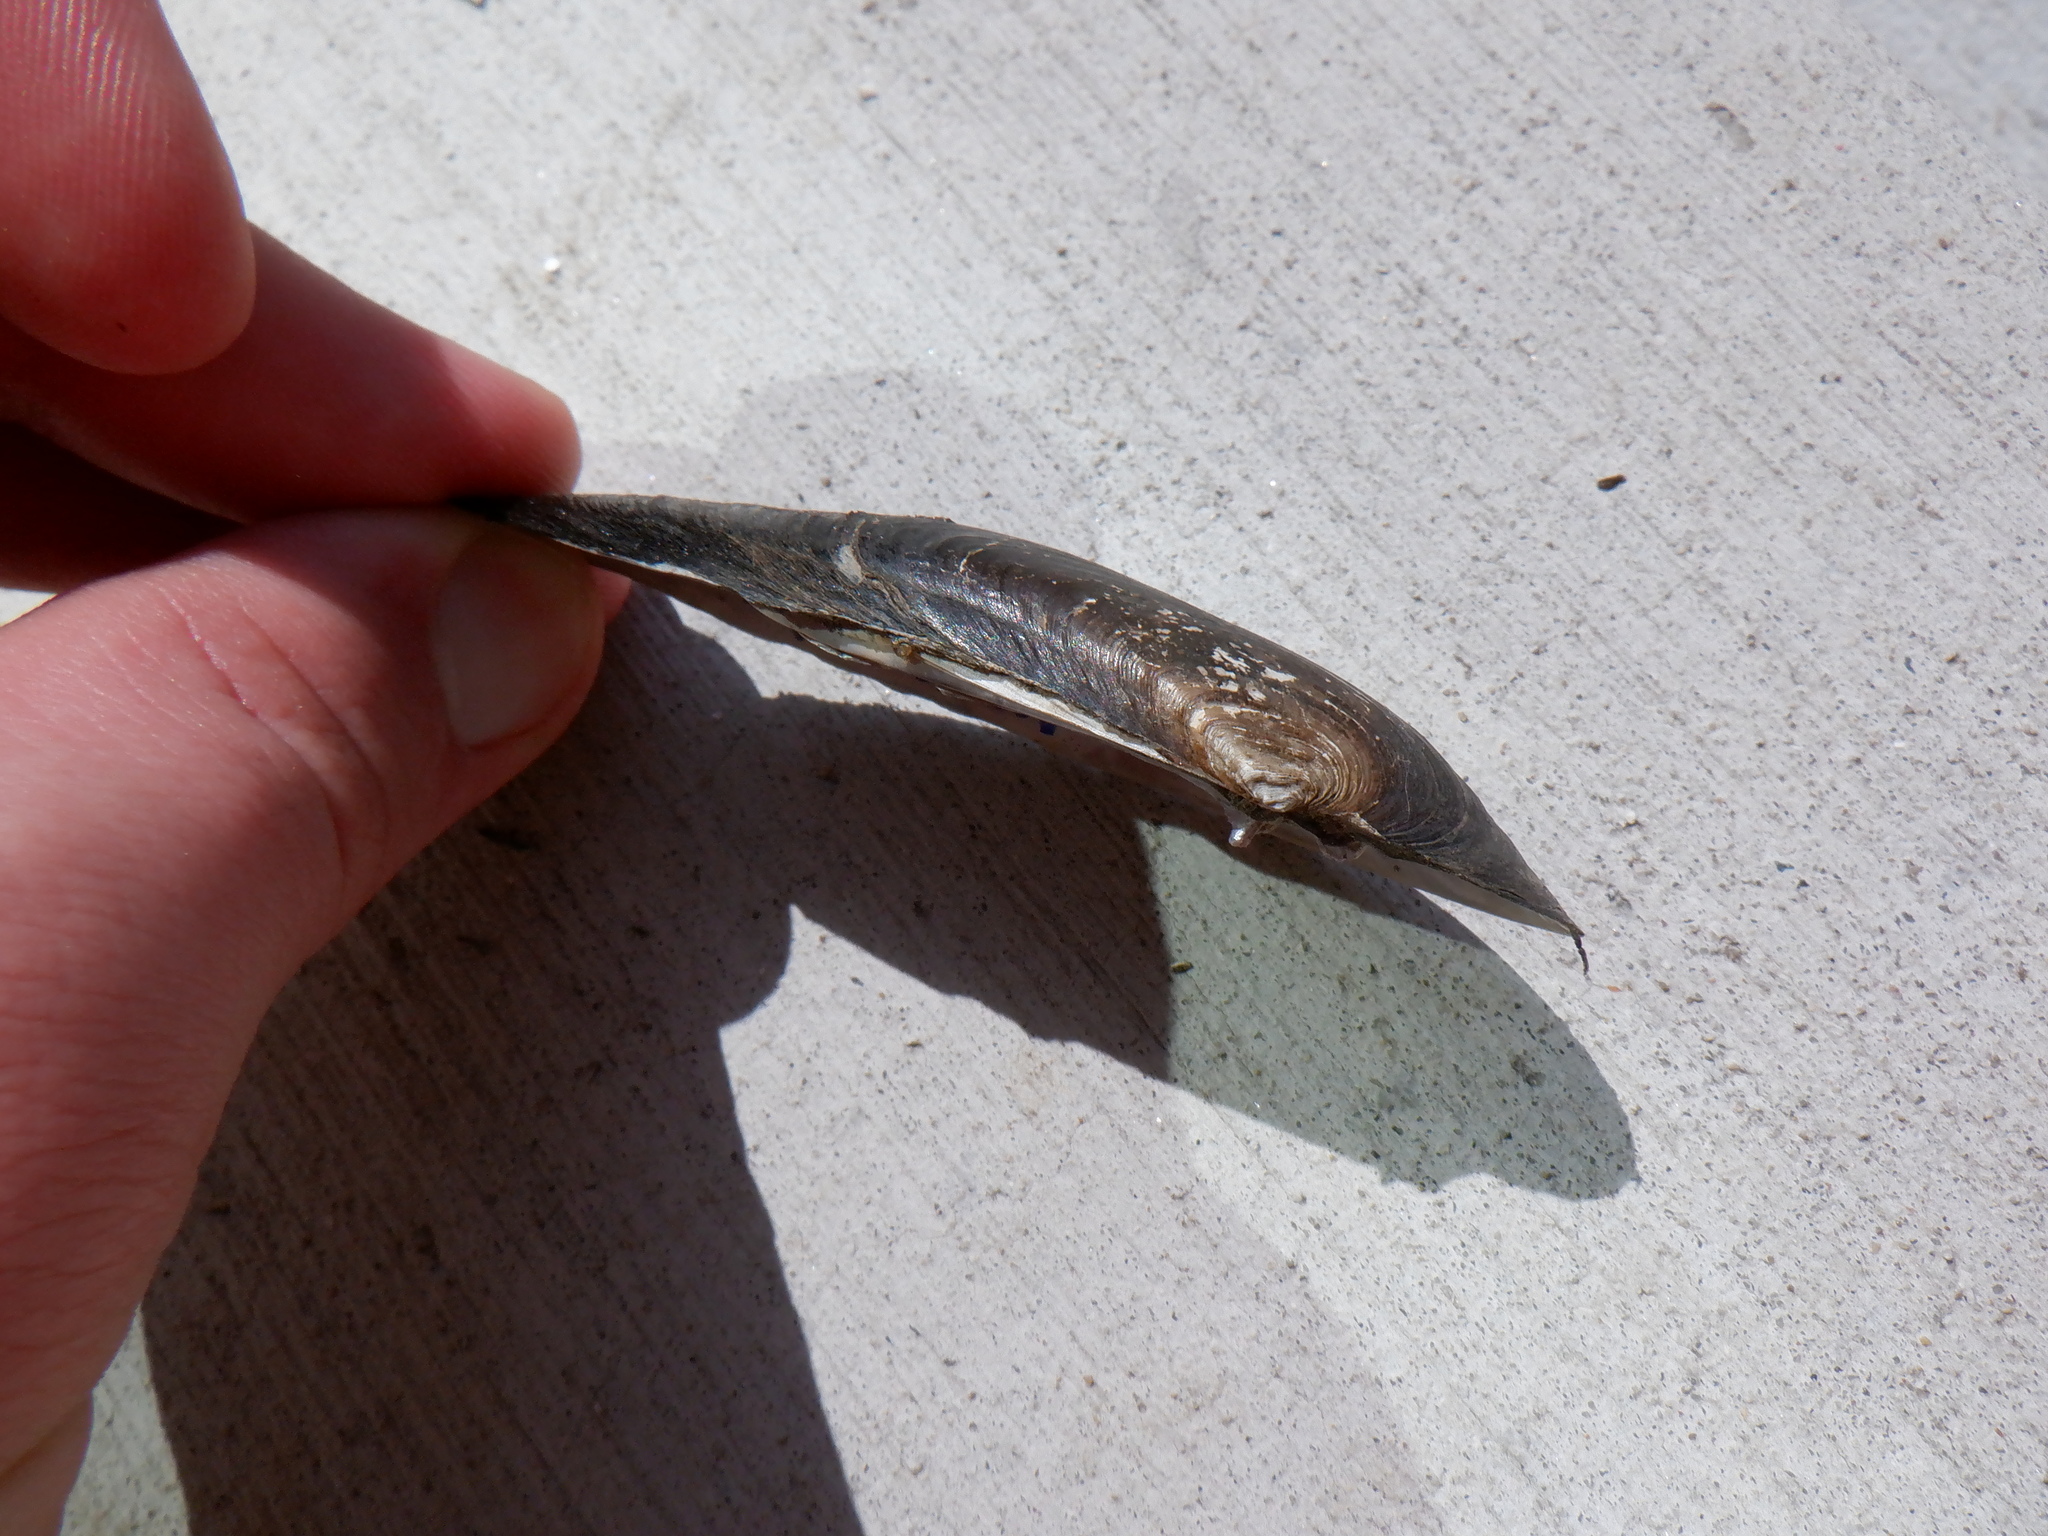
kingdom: Animalia
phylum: Mollusca
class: Bivalvia
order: Unionida
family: Unionidae
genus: Eurynia
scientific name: Eurynia dilatata
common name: Spike
